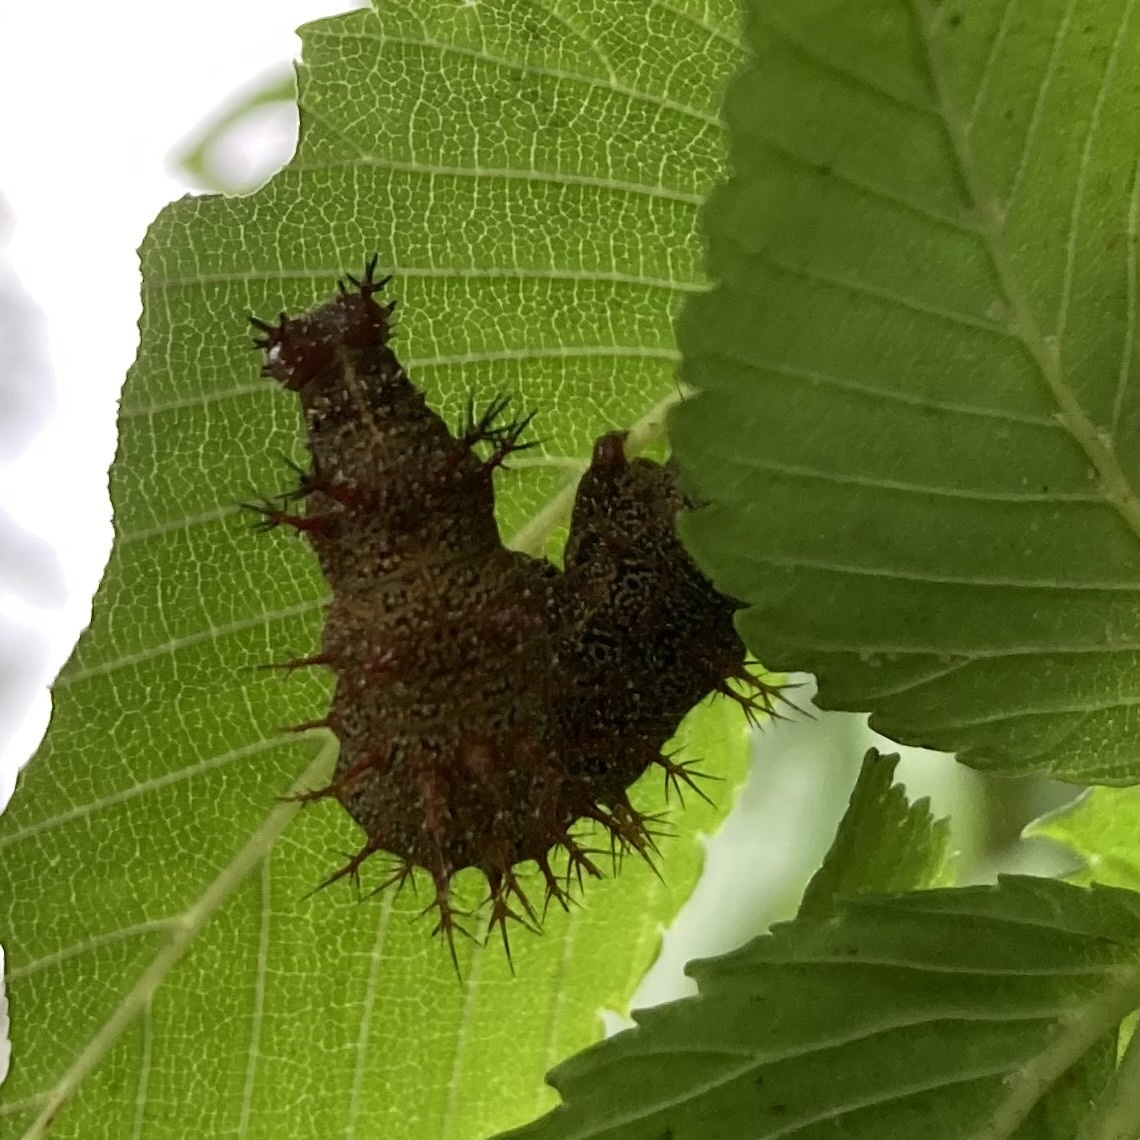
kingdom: Animalia
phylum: Arthropoda
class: Insecta
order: Lepidoptera
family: Nymphalidae
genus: Polygonia
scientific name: Polygonia interrogationis
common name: Question mark
